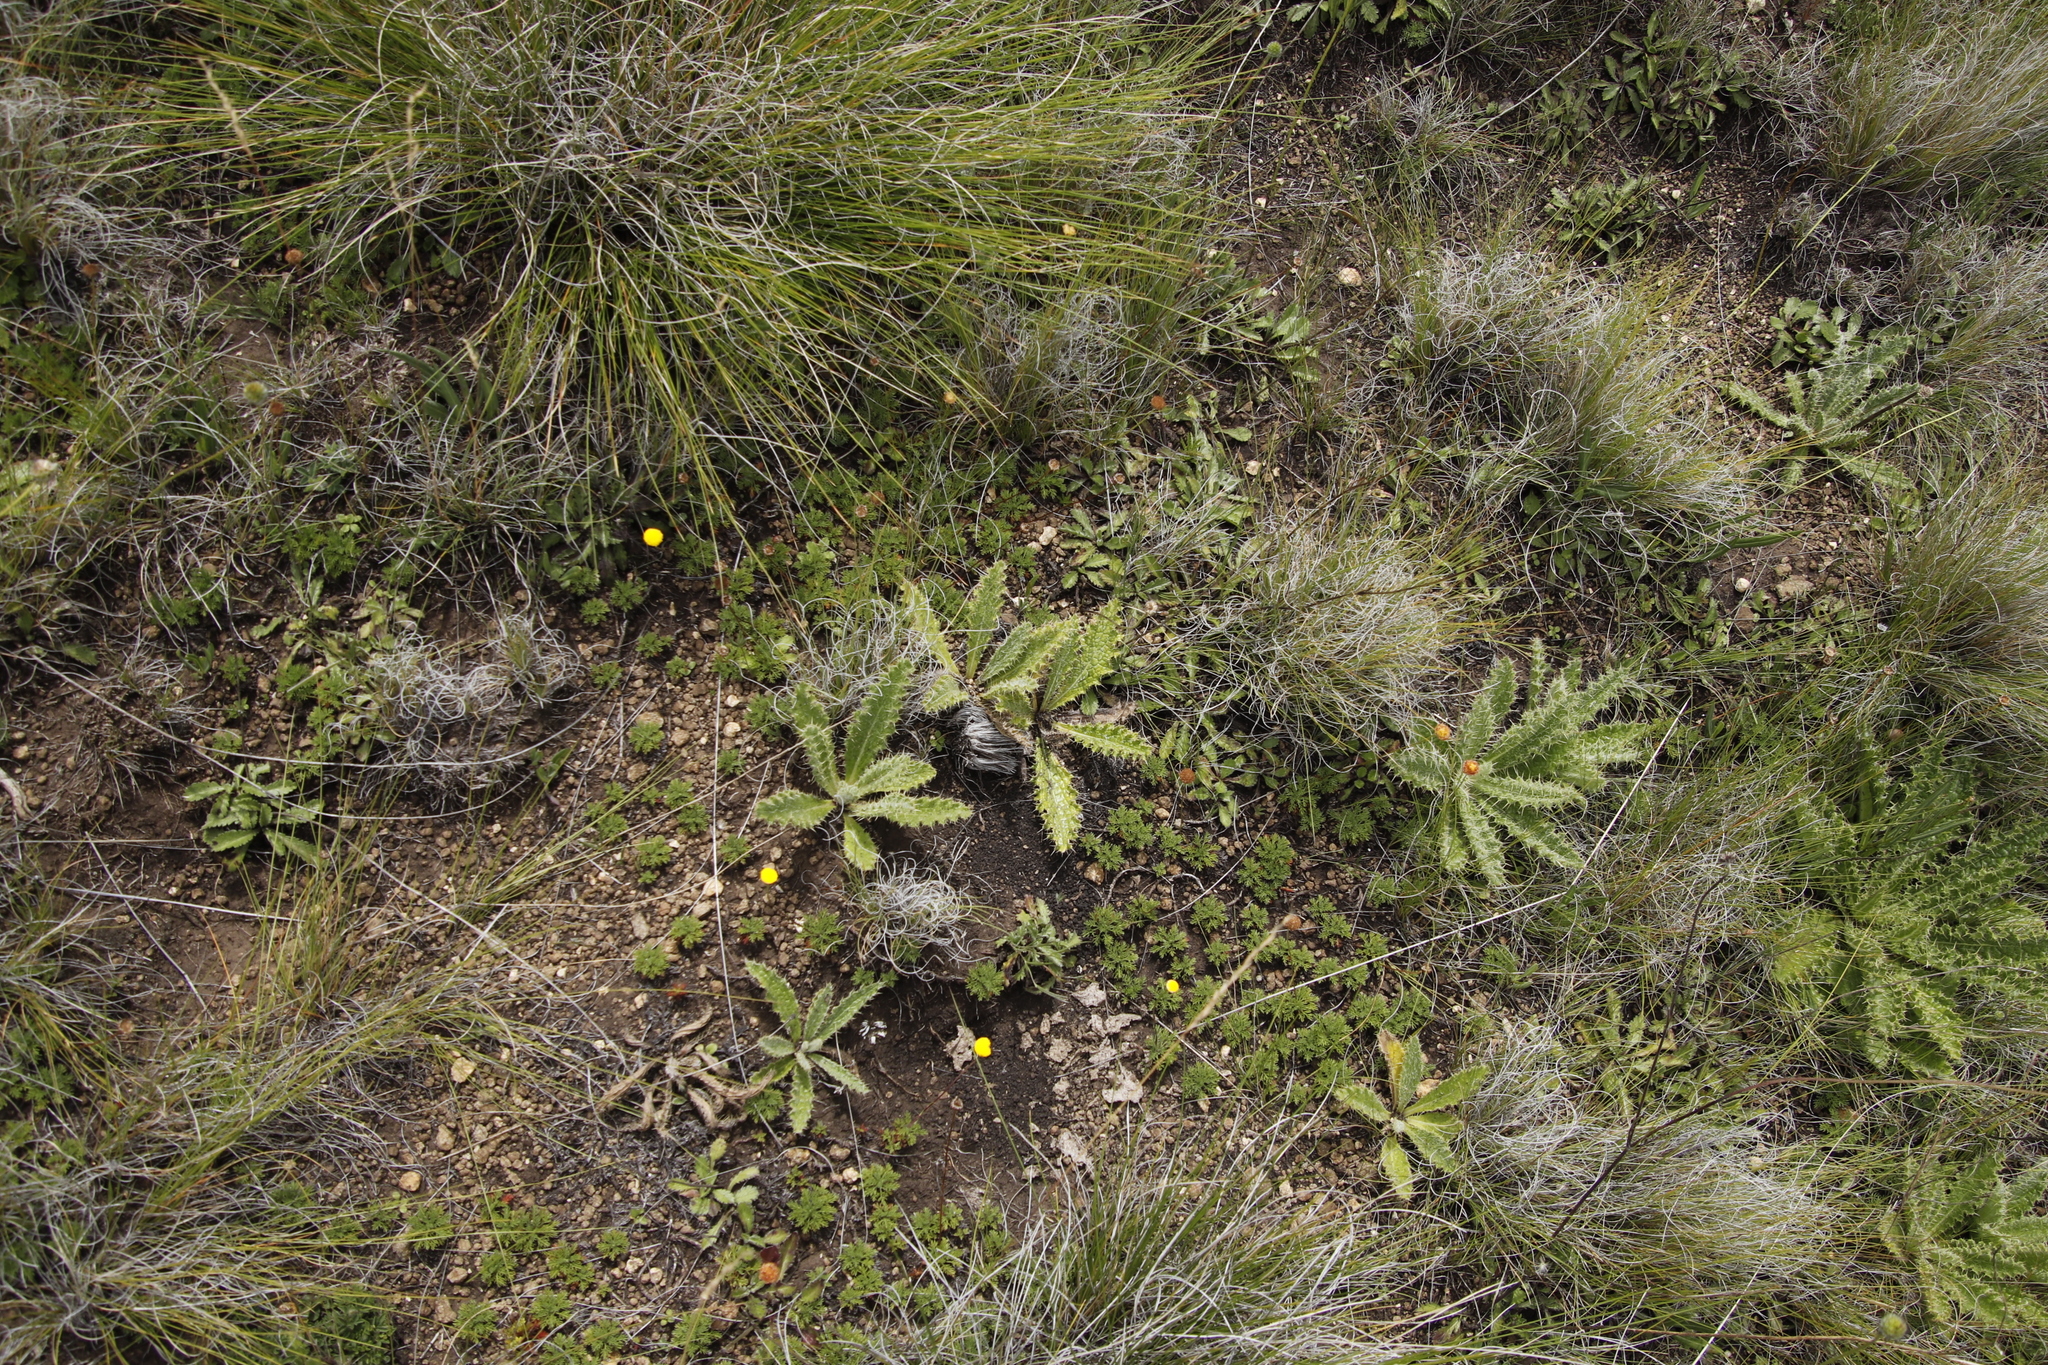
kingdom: Plantae
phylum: Tracheophyta
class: Magnoliopsida
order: Asterales
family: Asteraceae
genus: Berkheya
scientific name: Berkheya purpurea
